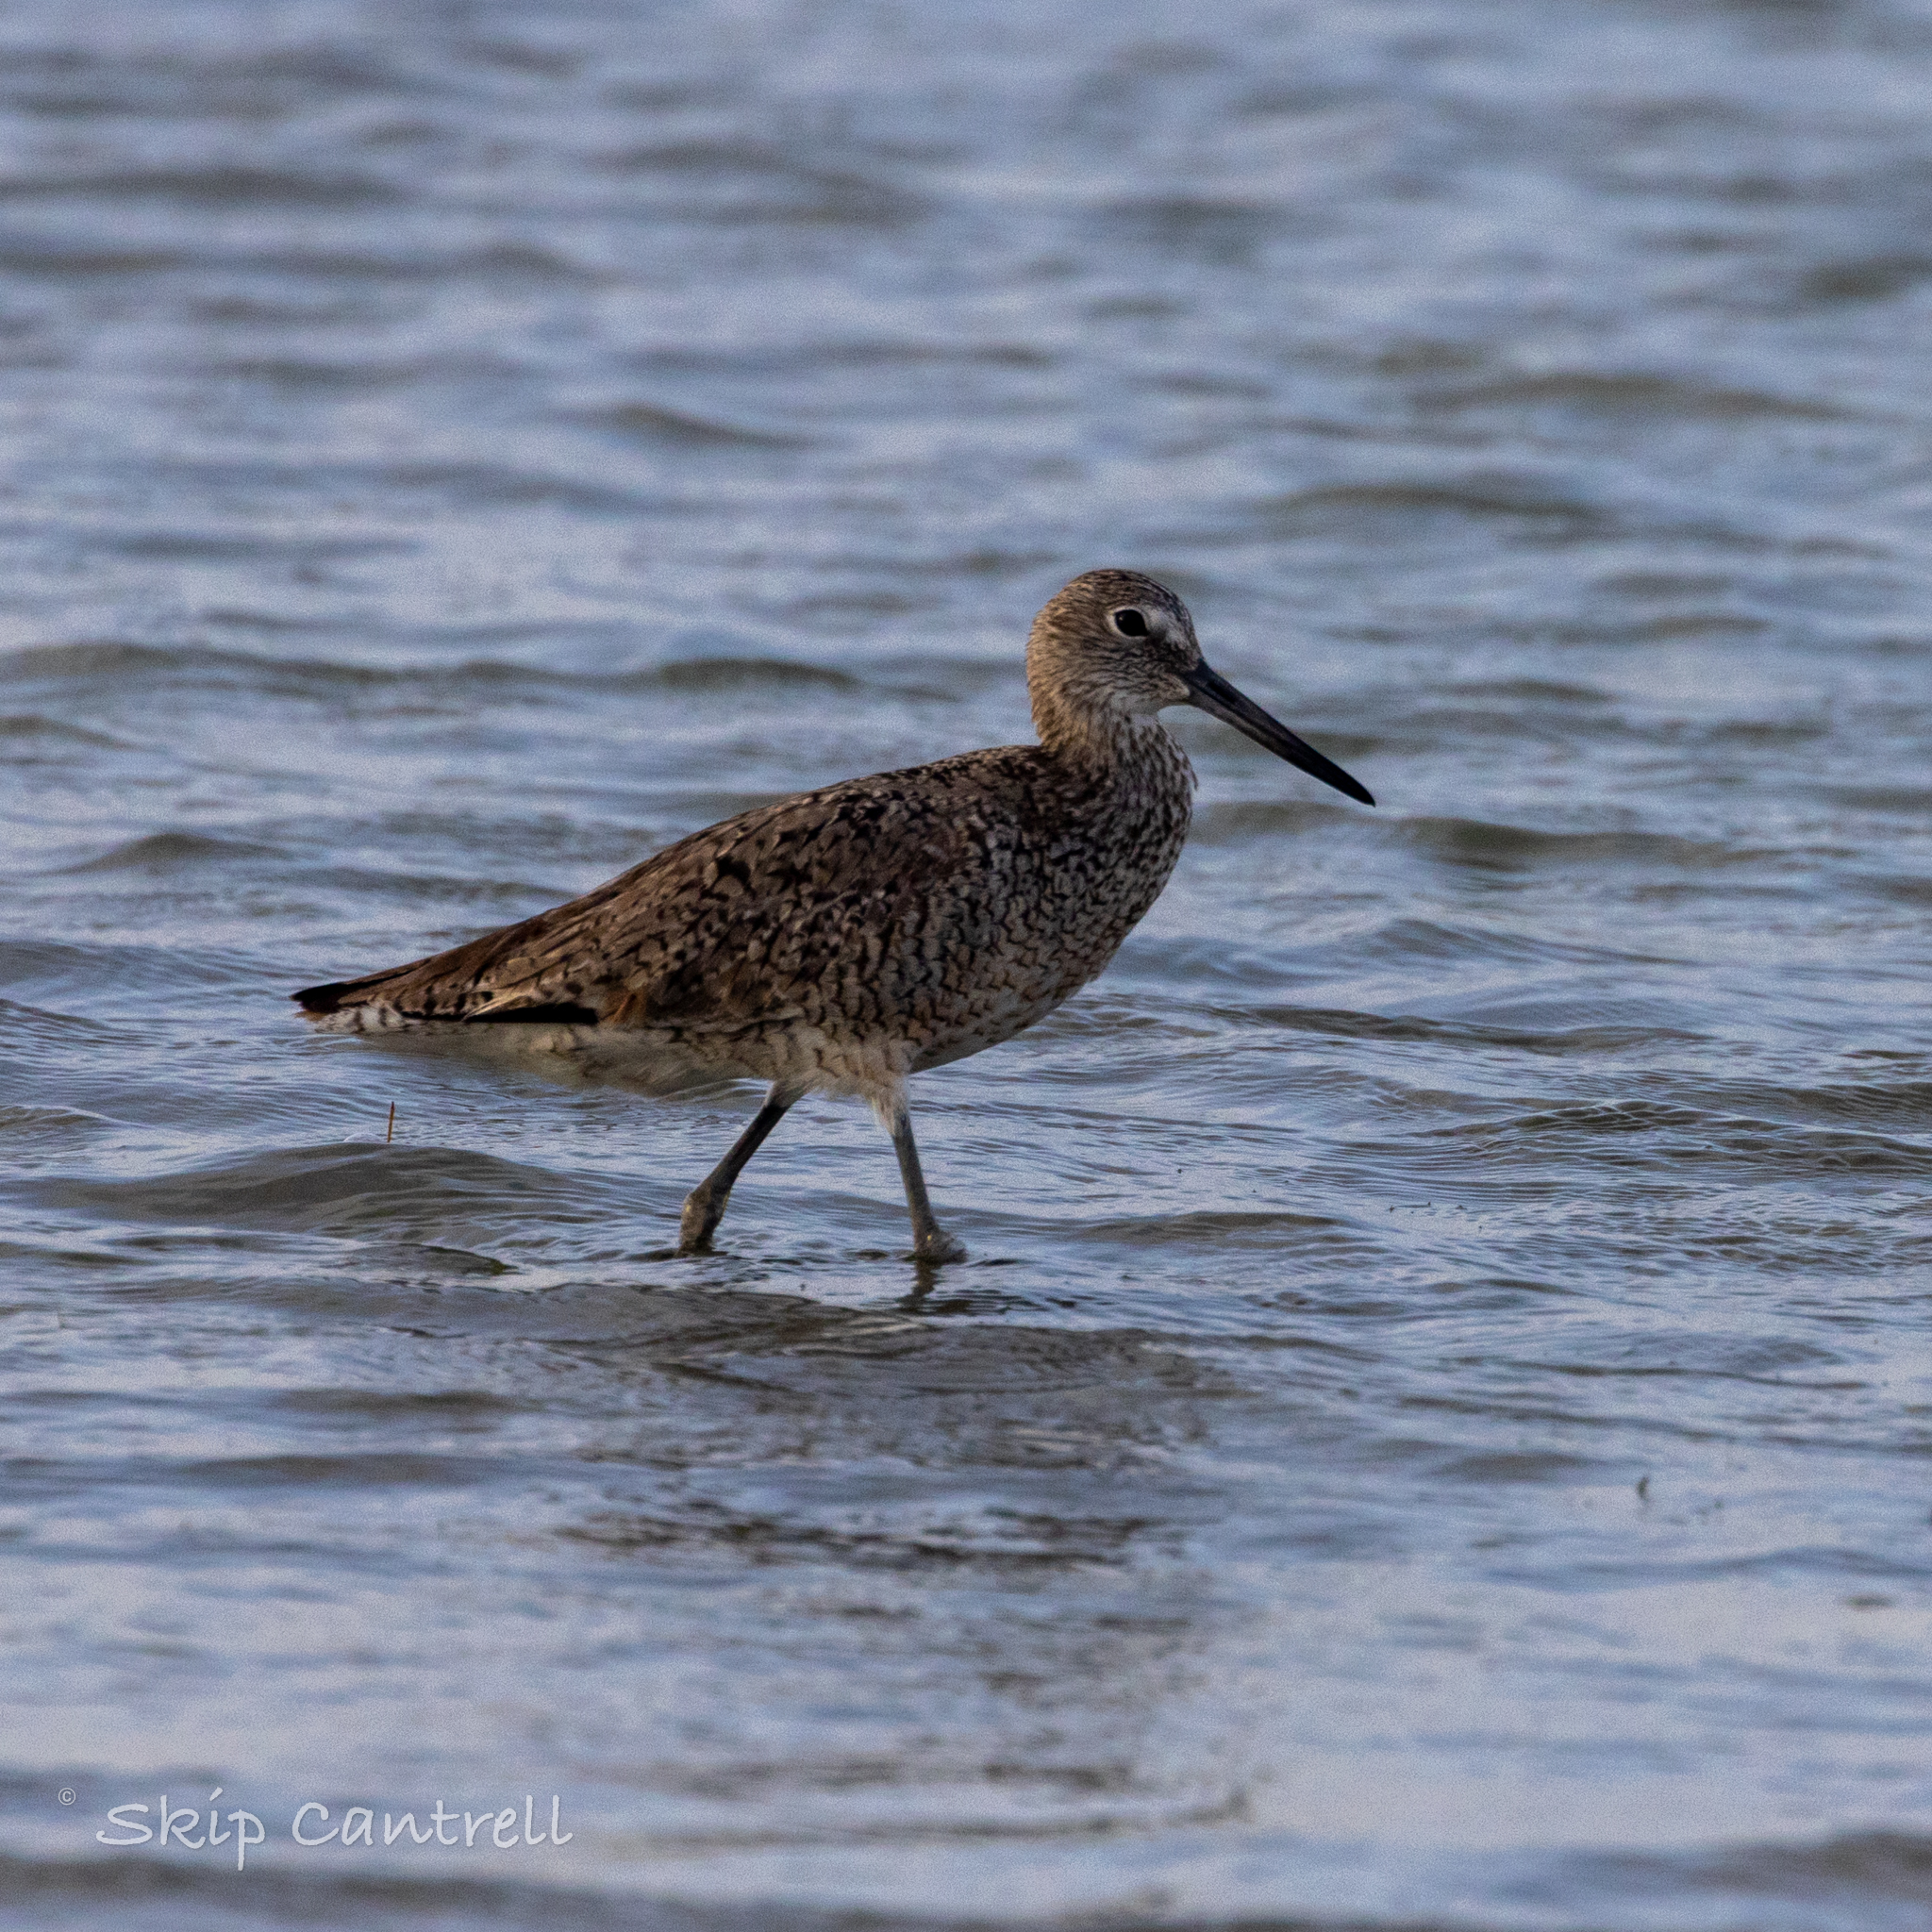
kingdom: Animalia
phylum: Chordata
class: Aves
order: Charadriiformes
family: Scolopacidae
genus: Tringa
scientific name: Tringa semipalmata
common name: Willet
